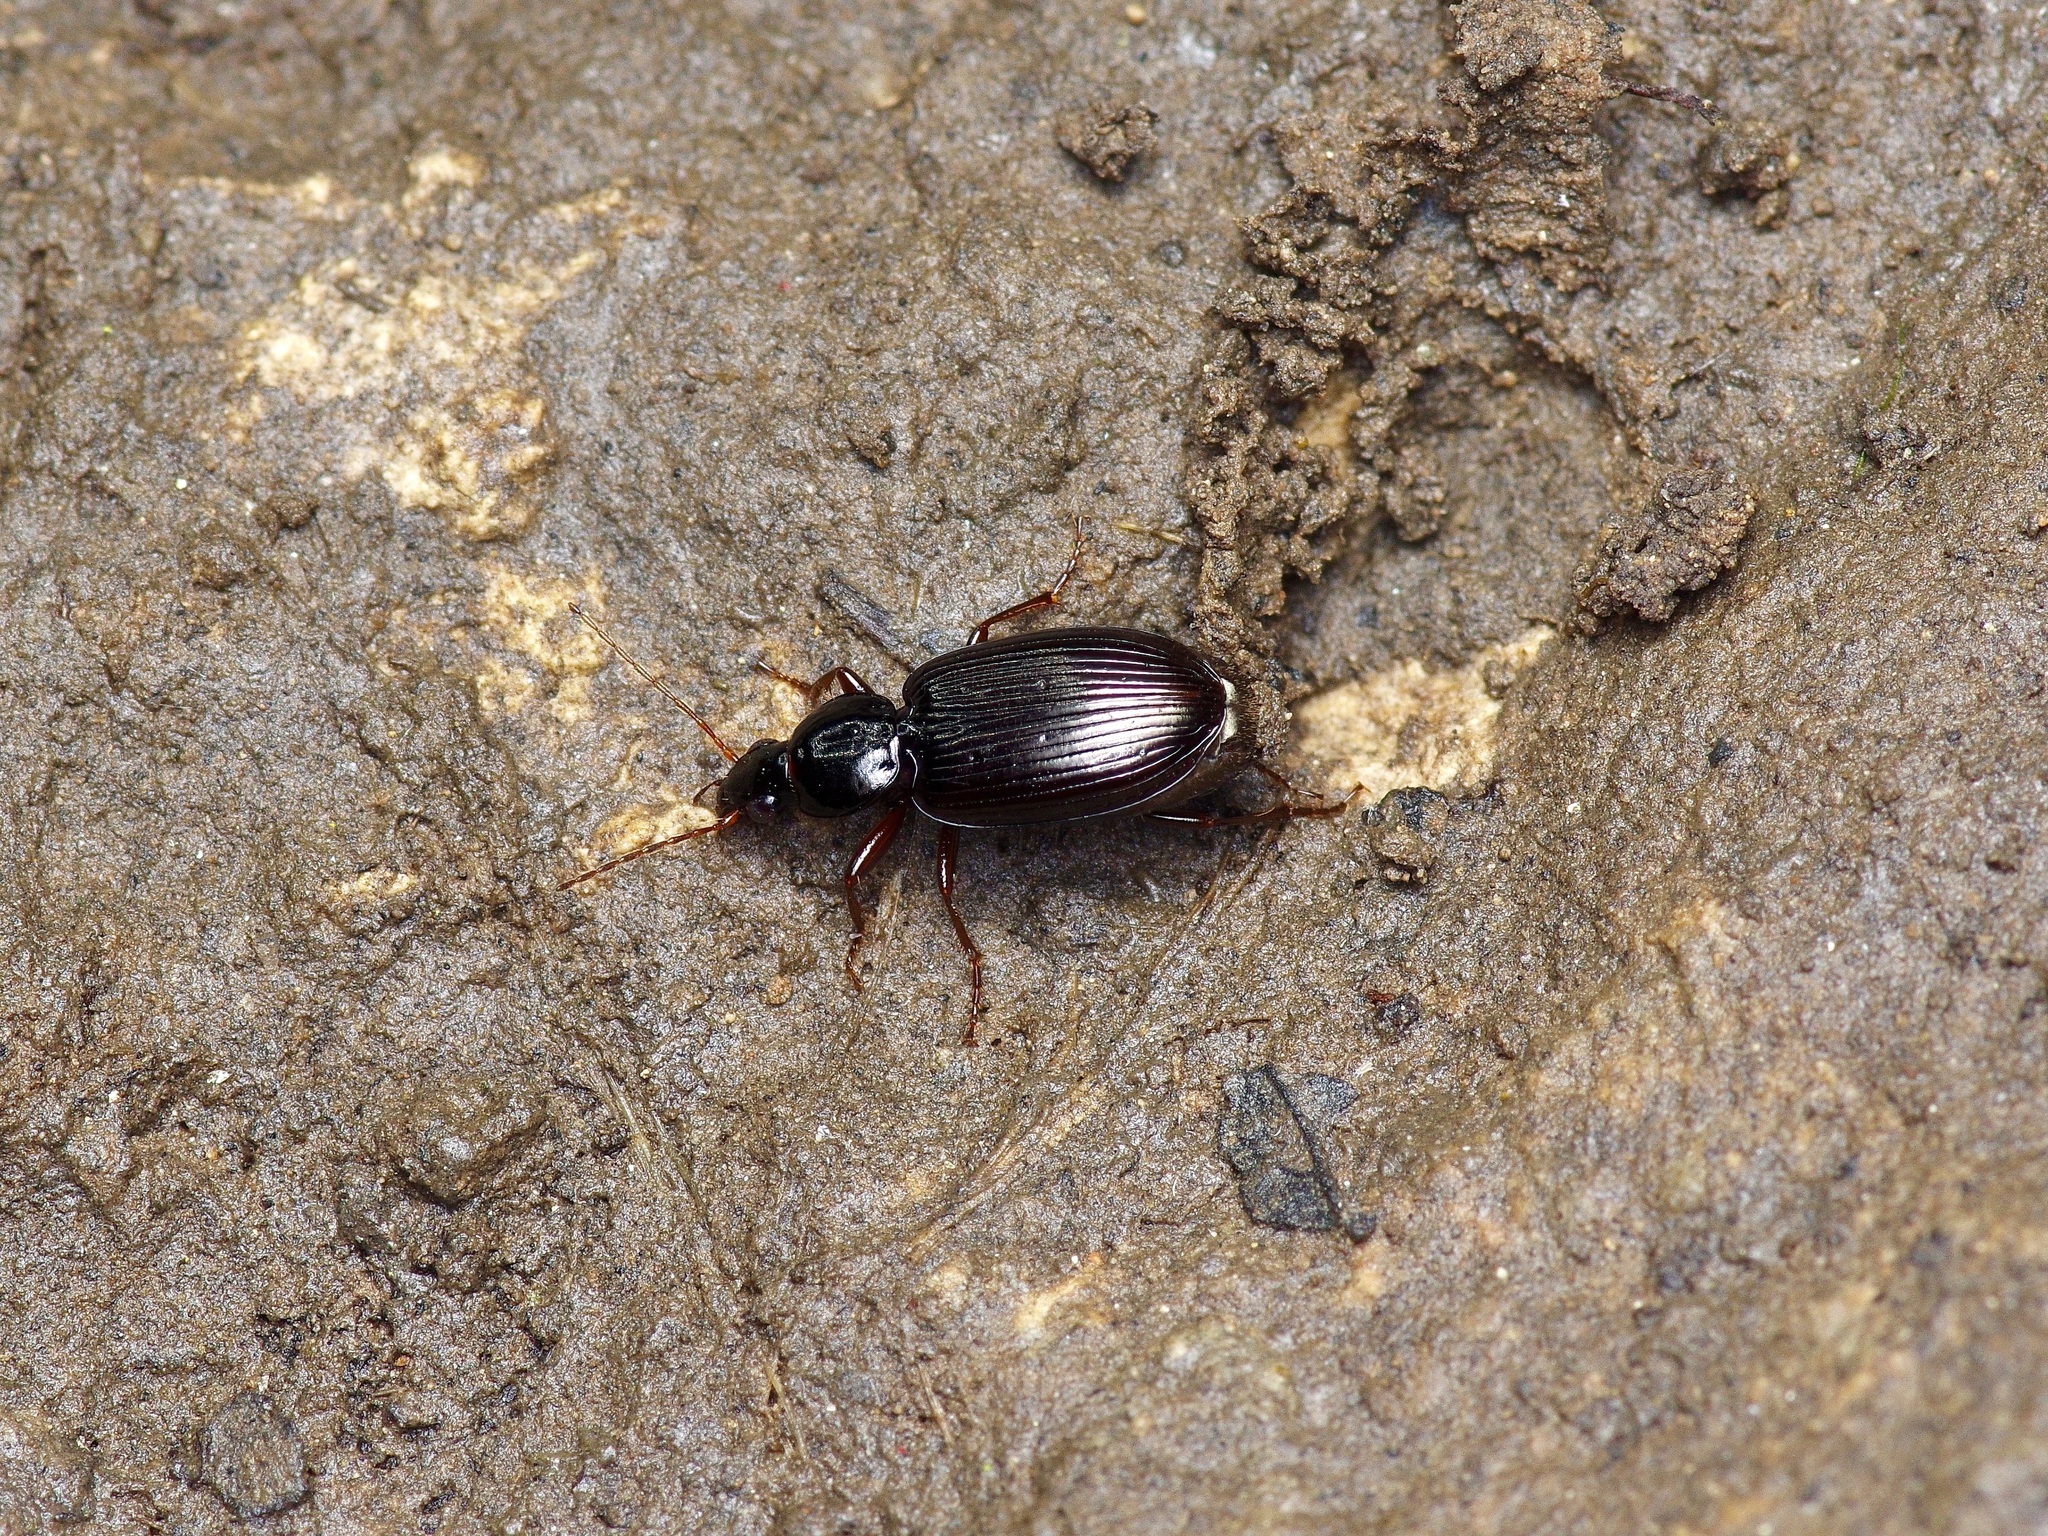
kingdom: Animalia
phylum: Arthropoda
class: Insecta
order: Coleoptera
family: Carabidae
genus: Agonum
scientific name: Agonum punctiforme
